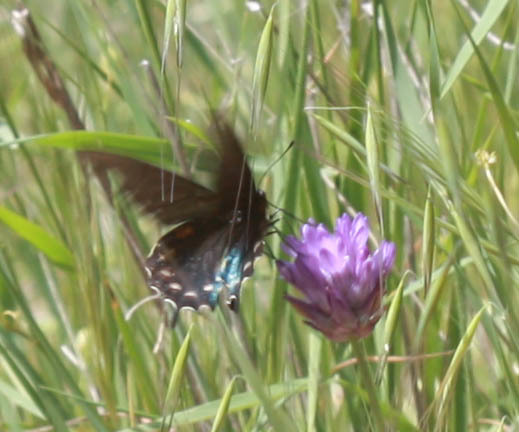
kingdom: Animalia
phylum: Arthropoda
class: Insecta
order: Lepidoptera
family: Papilionidae
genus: Battus
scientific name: Battus philenor
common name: Pipevine swallowtail
